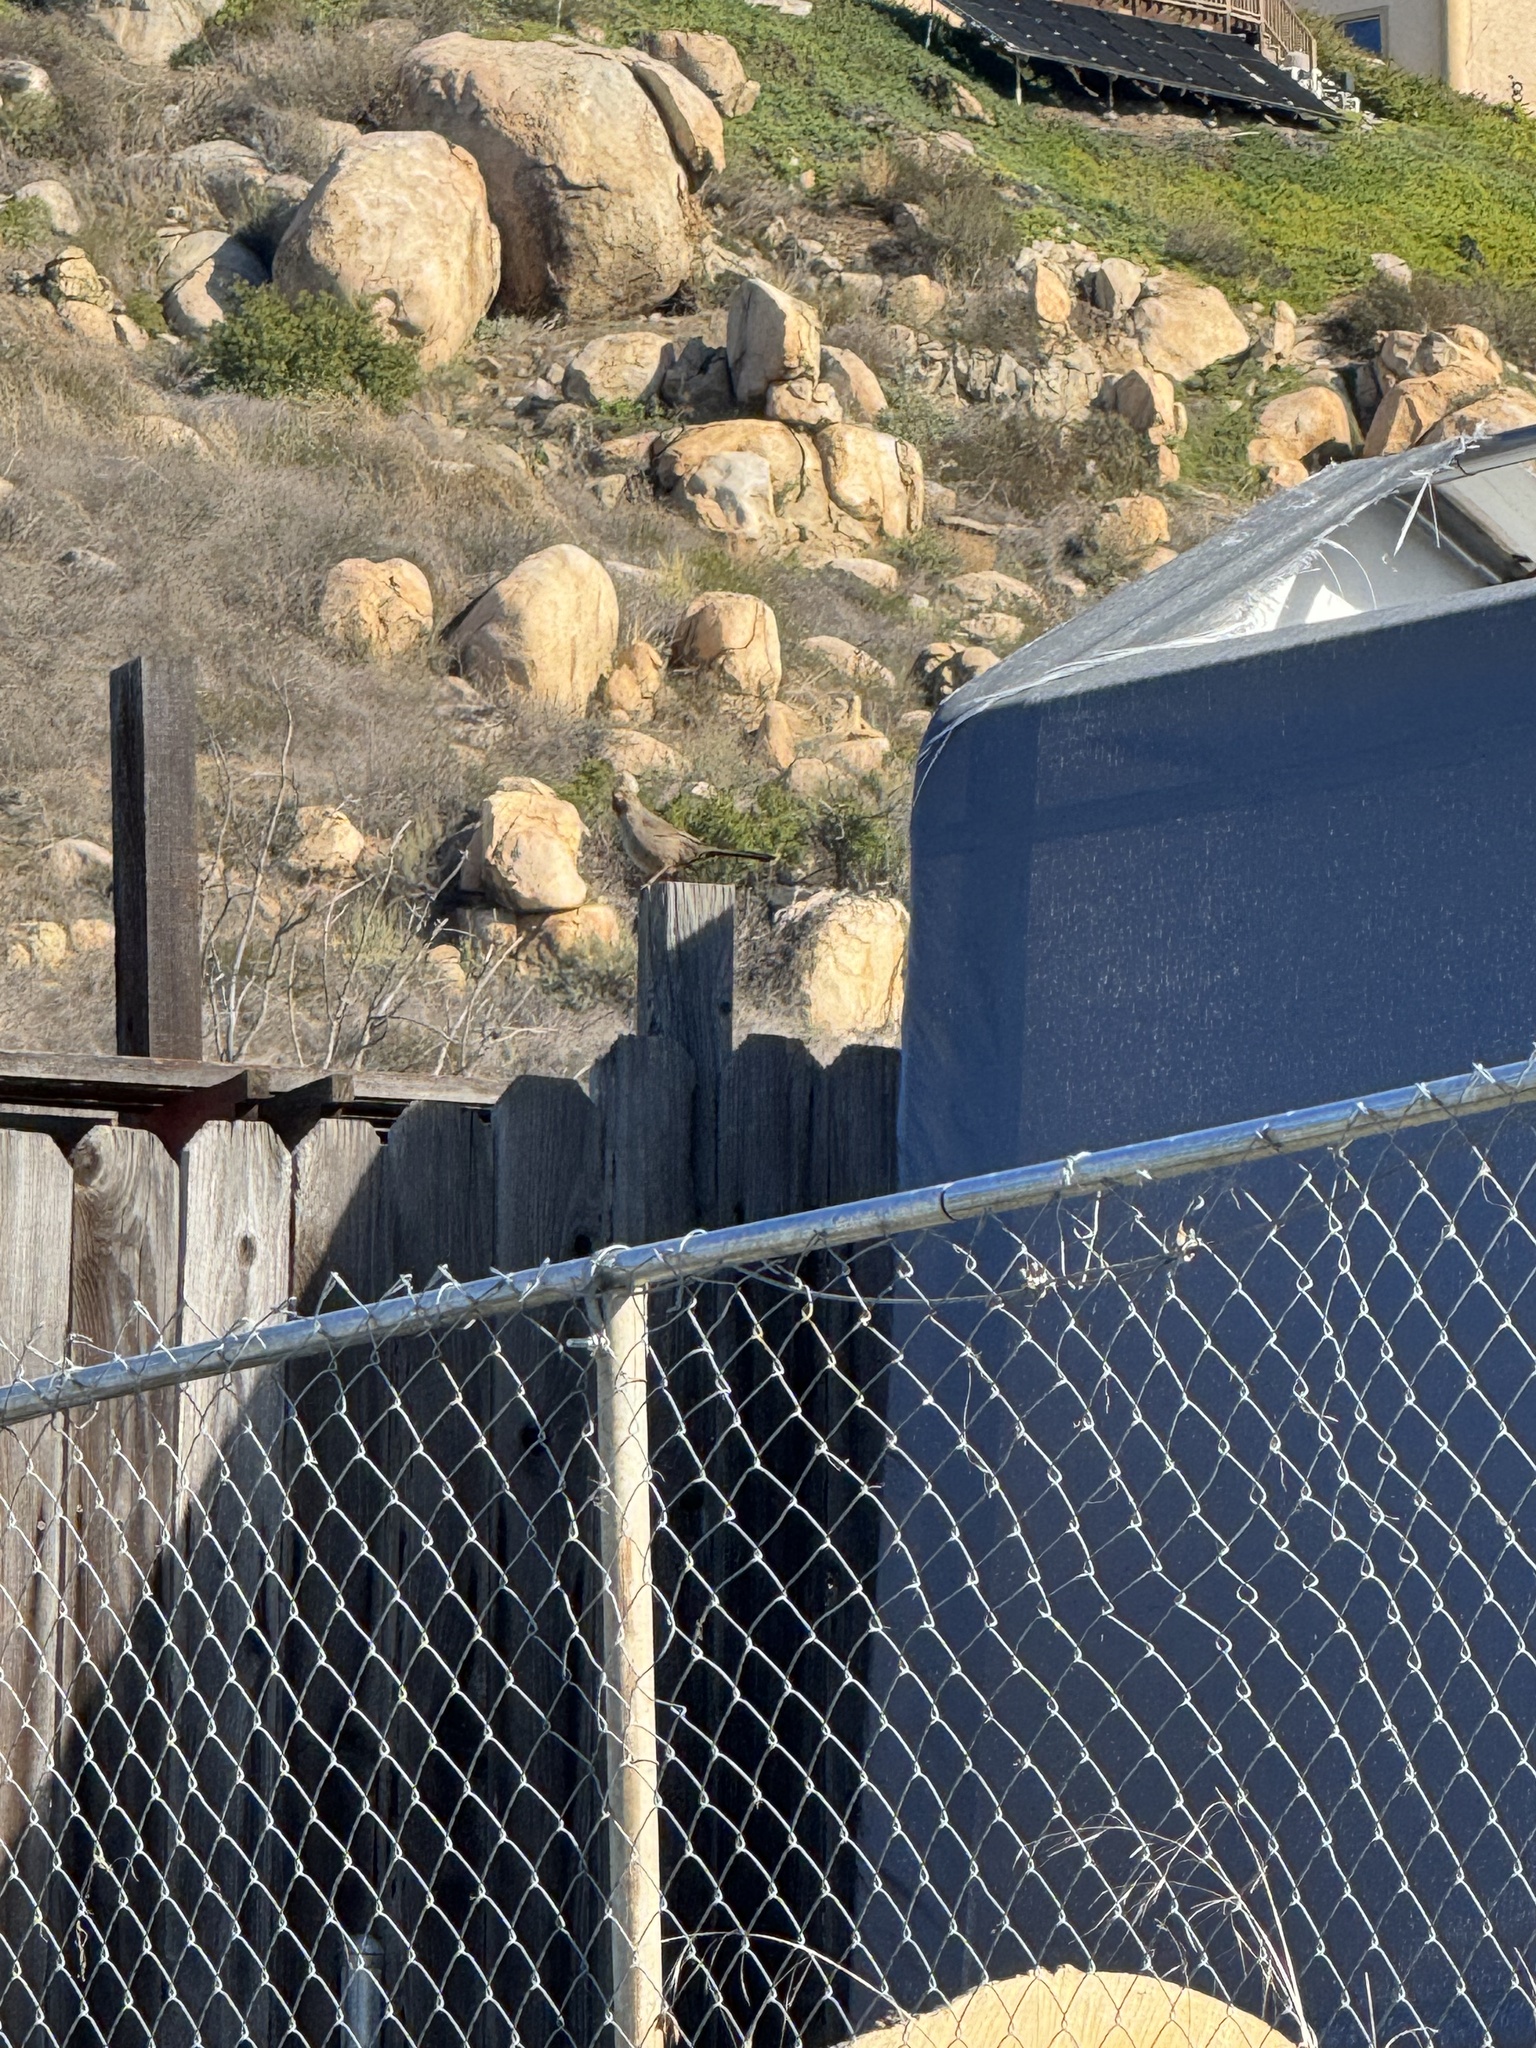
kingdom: Animalia
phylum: Chordata
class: Aves
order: Passeriformes
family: Passerellidae
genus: Melozone
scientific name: Melozone crissalis
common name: California towhee
